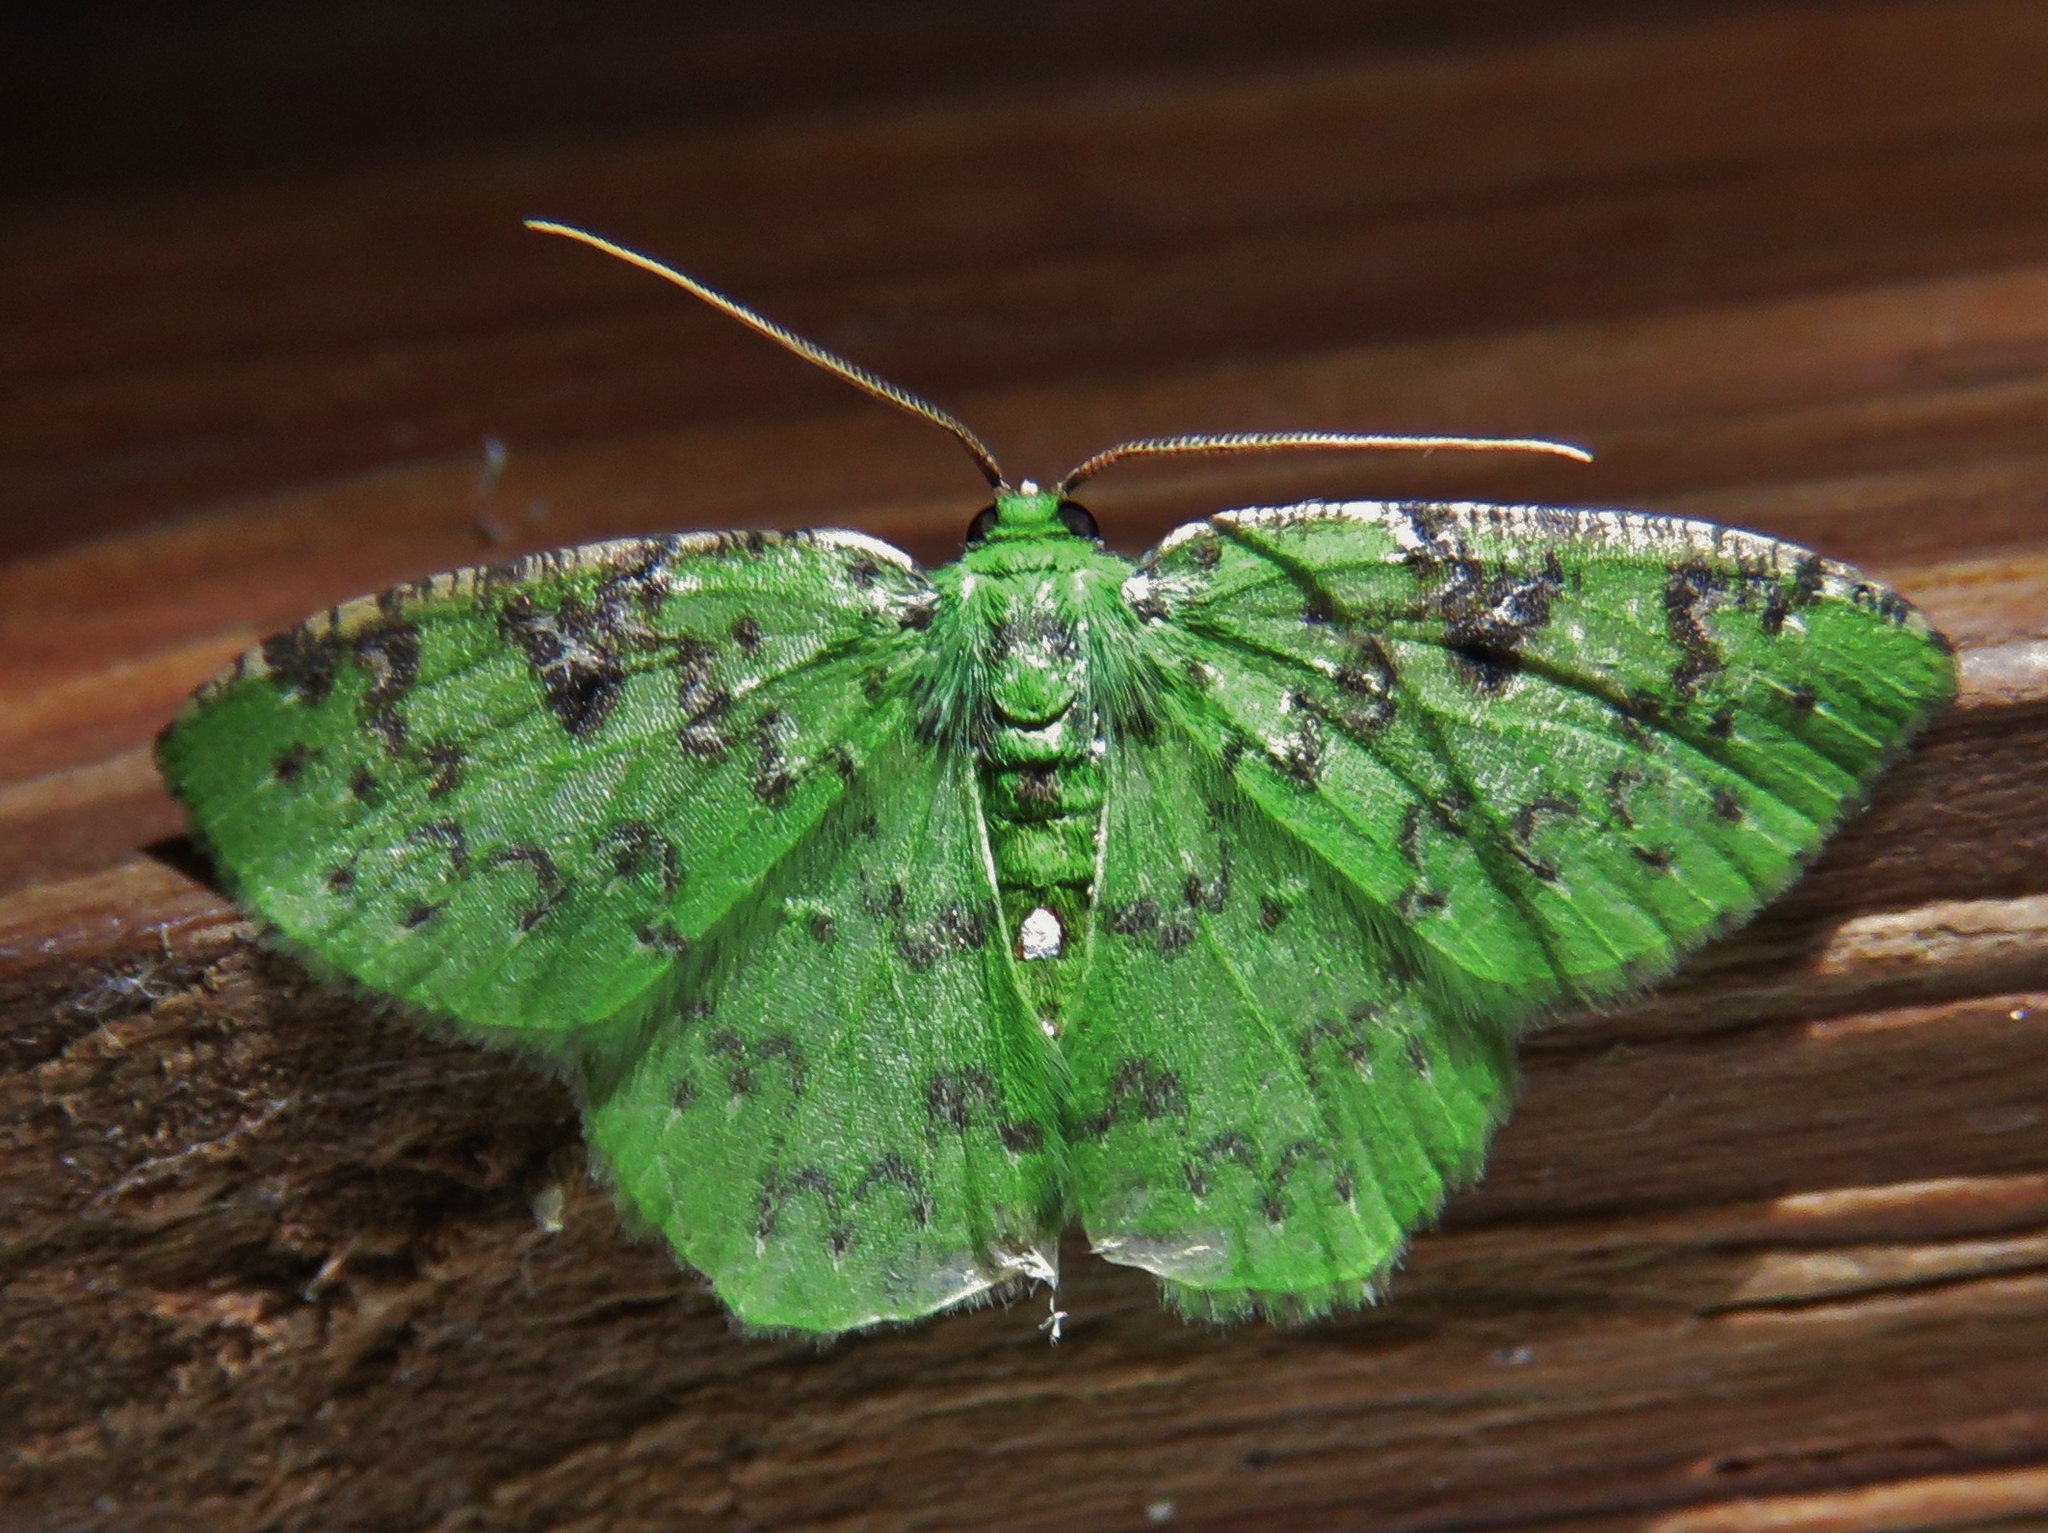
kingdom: Animalia
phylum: Arthropoda
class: Insecta
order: Lepidoptera
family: Geometridae
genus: Nemoria
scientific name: Nemoria adjunctaria
